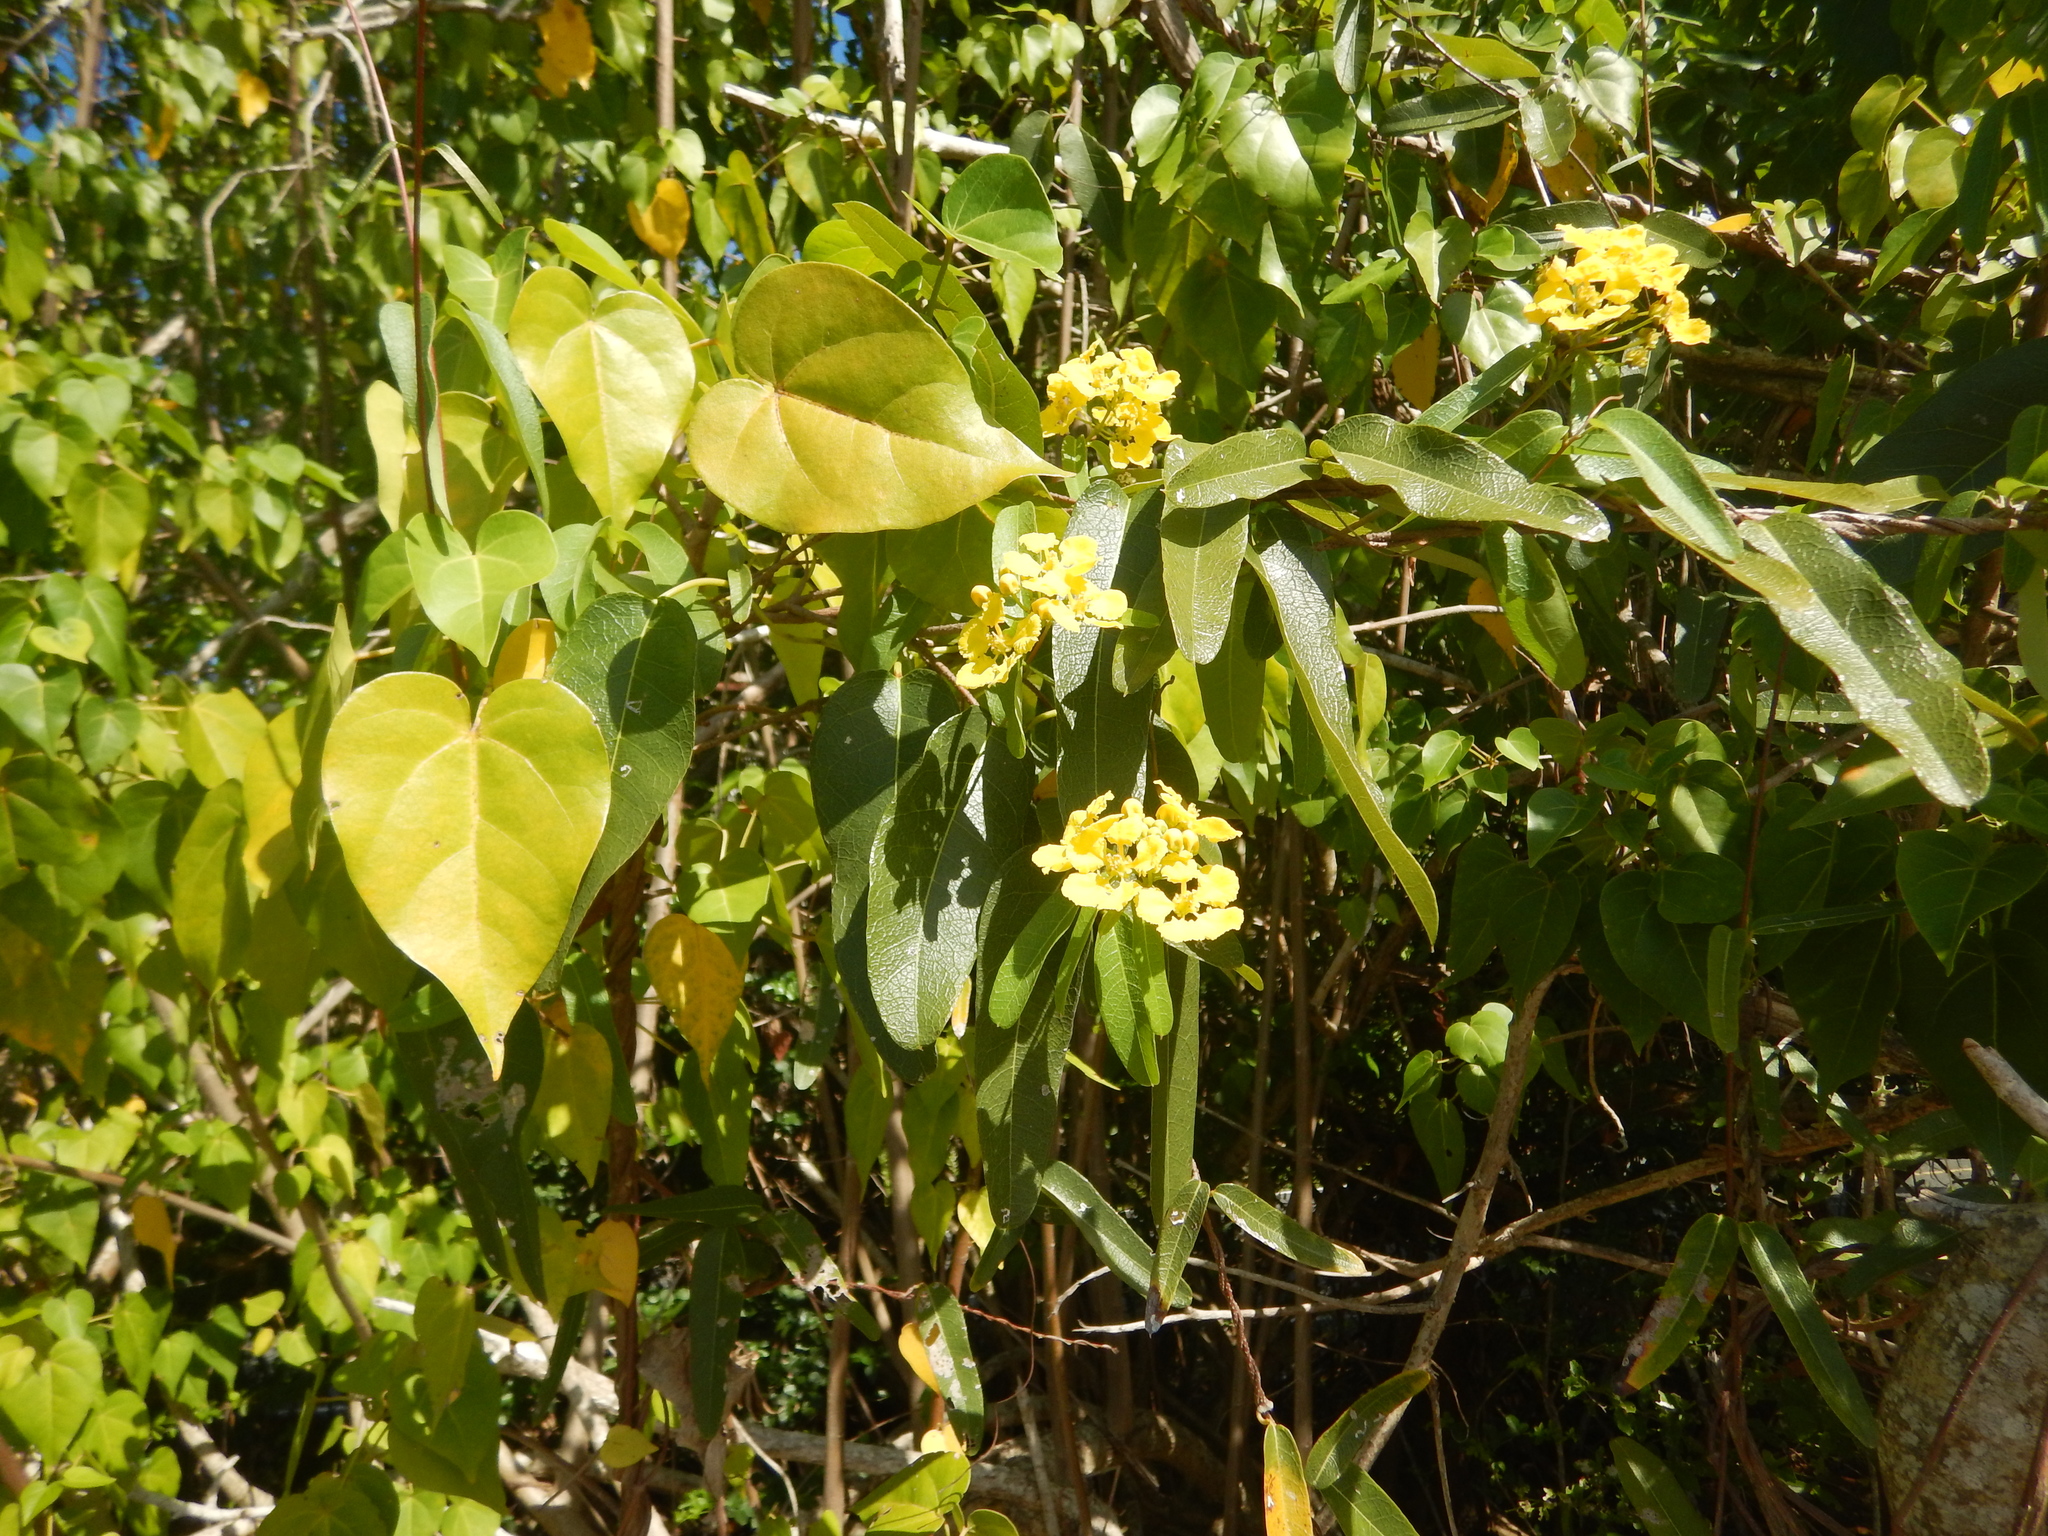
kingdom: Plantae
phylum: Tracheophyta
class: Magnoliopsida
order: Malpighiales
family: Malpighiaceae
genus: Stigmaphyllon
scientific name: Stigmaphyllon emarginatum
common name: Monarch amazonvine
